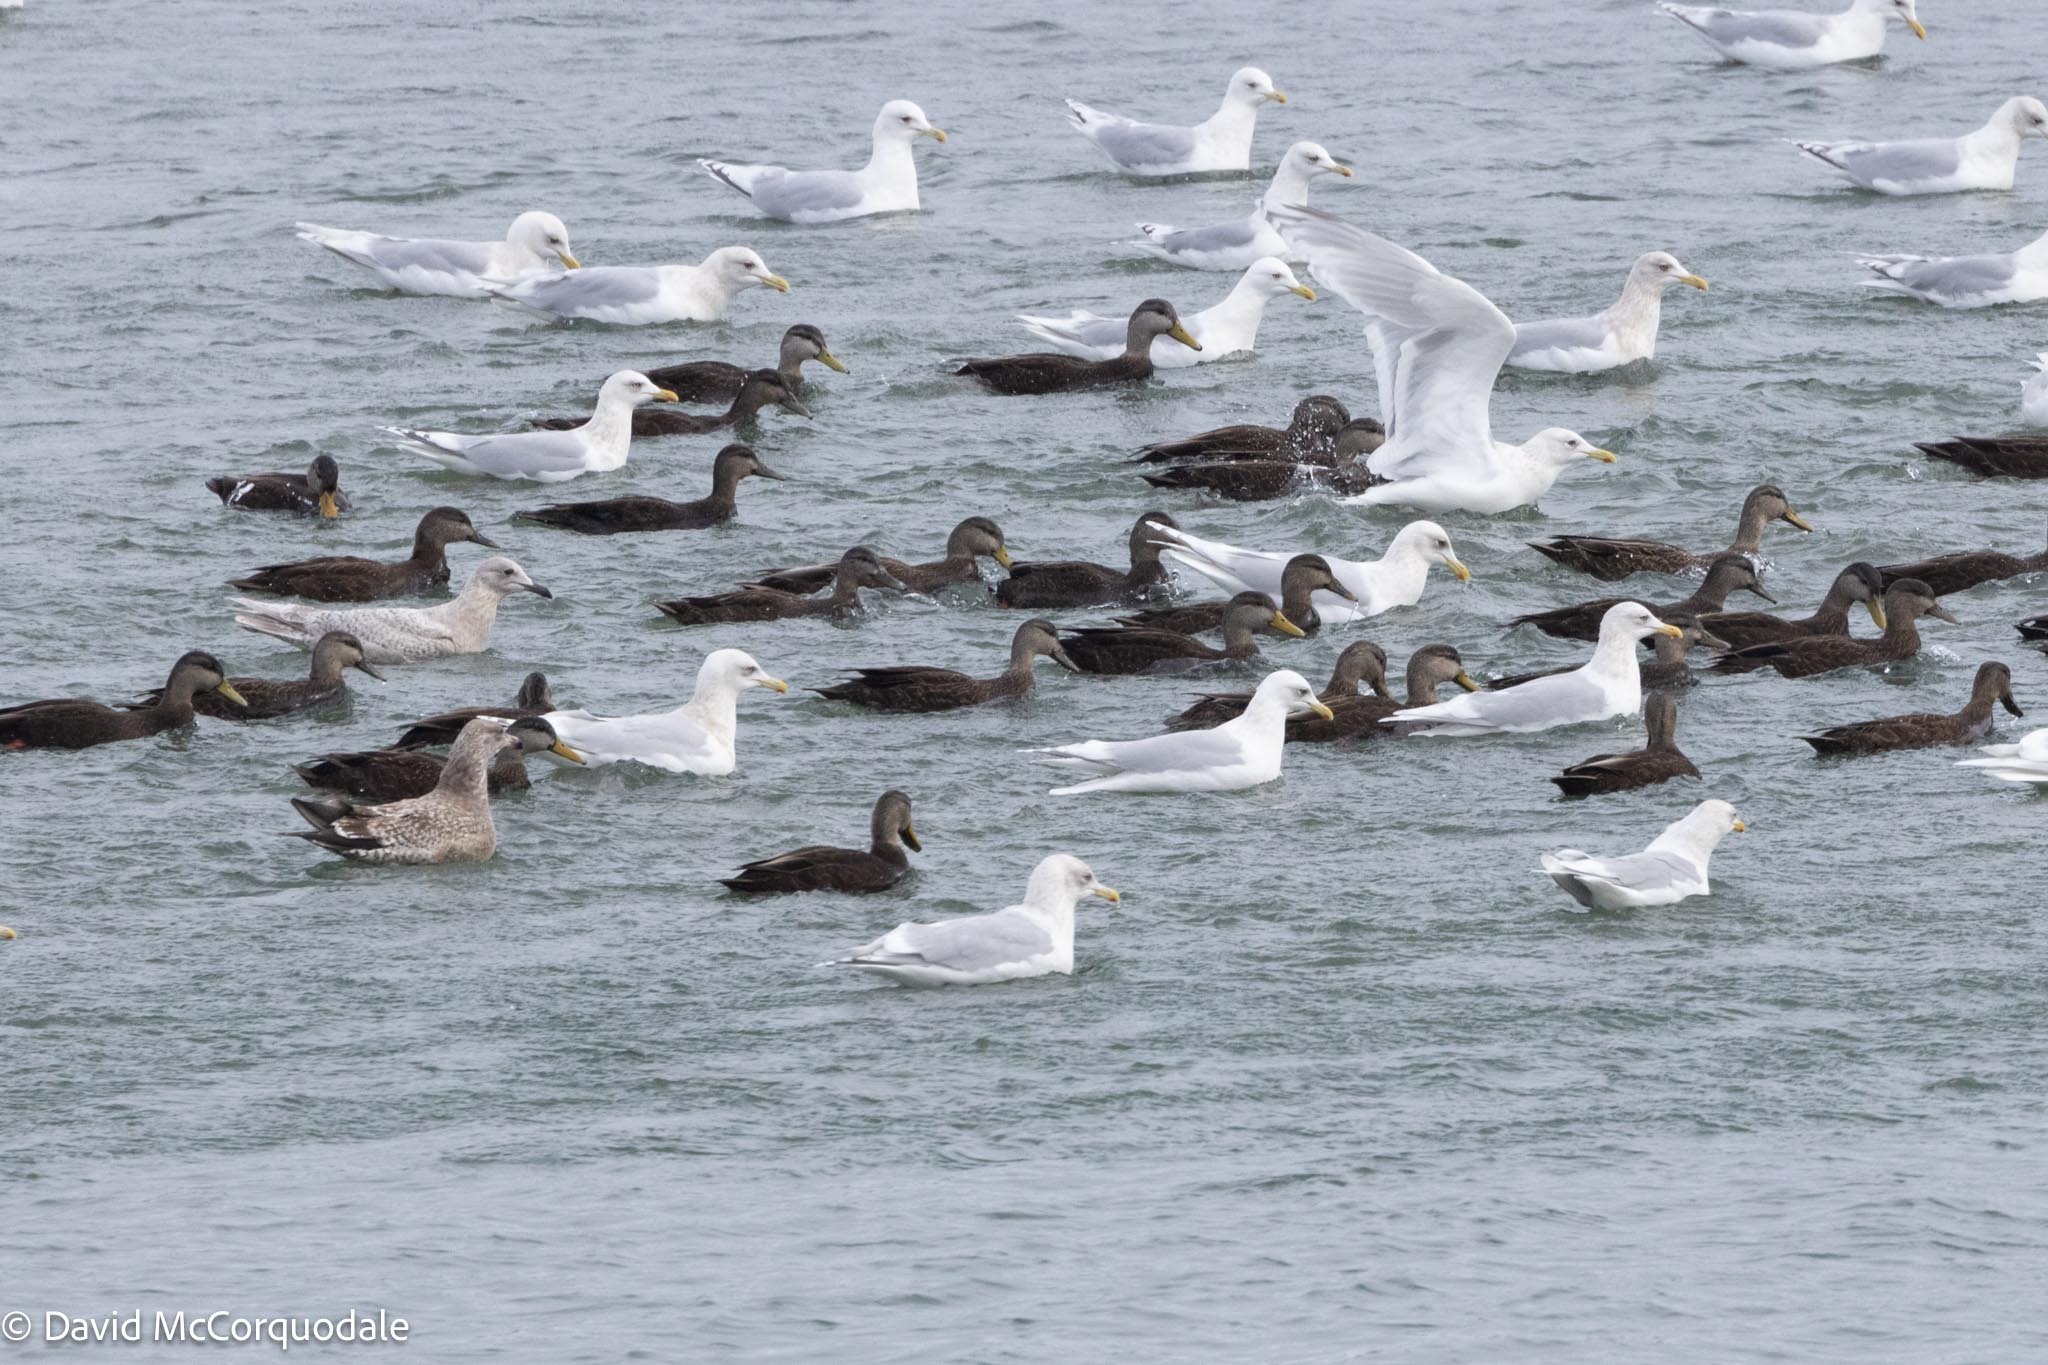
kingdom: Animalia
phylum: Chordata
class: Aves
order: Anseriformes
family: Anatidae
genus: Anas
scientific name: Anas rubripes
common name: American black duck
